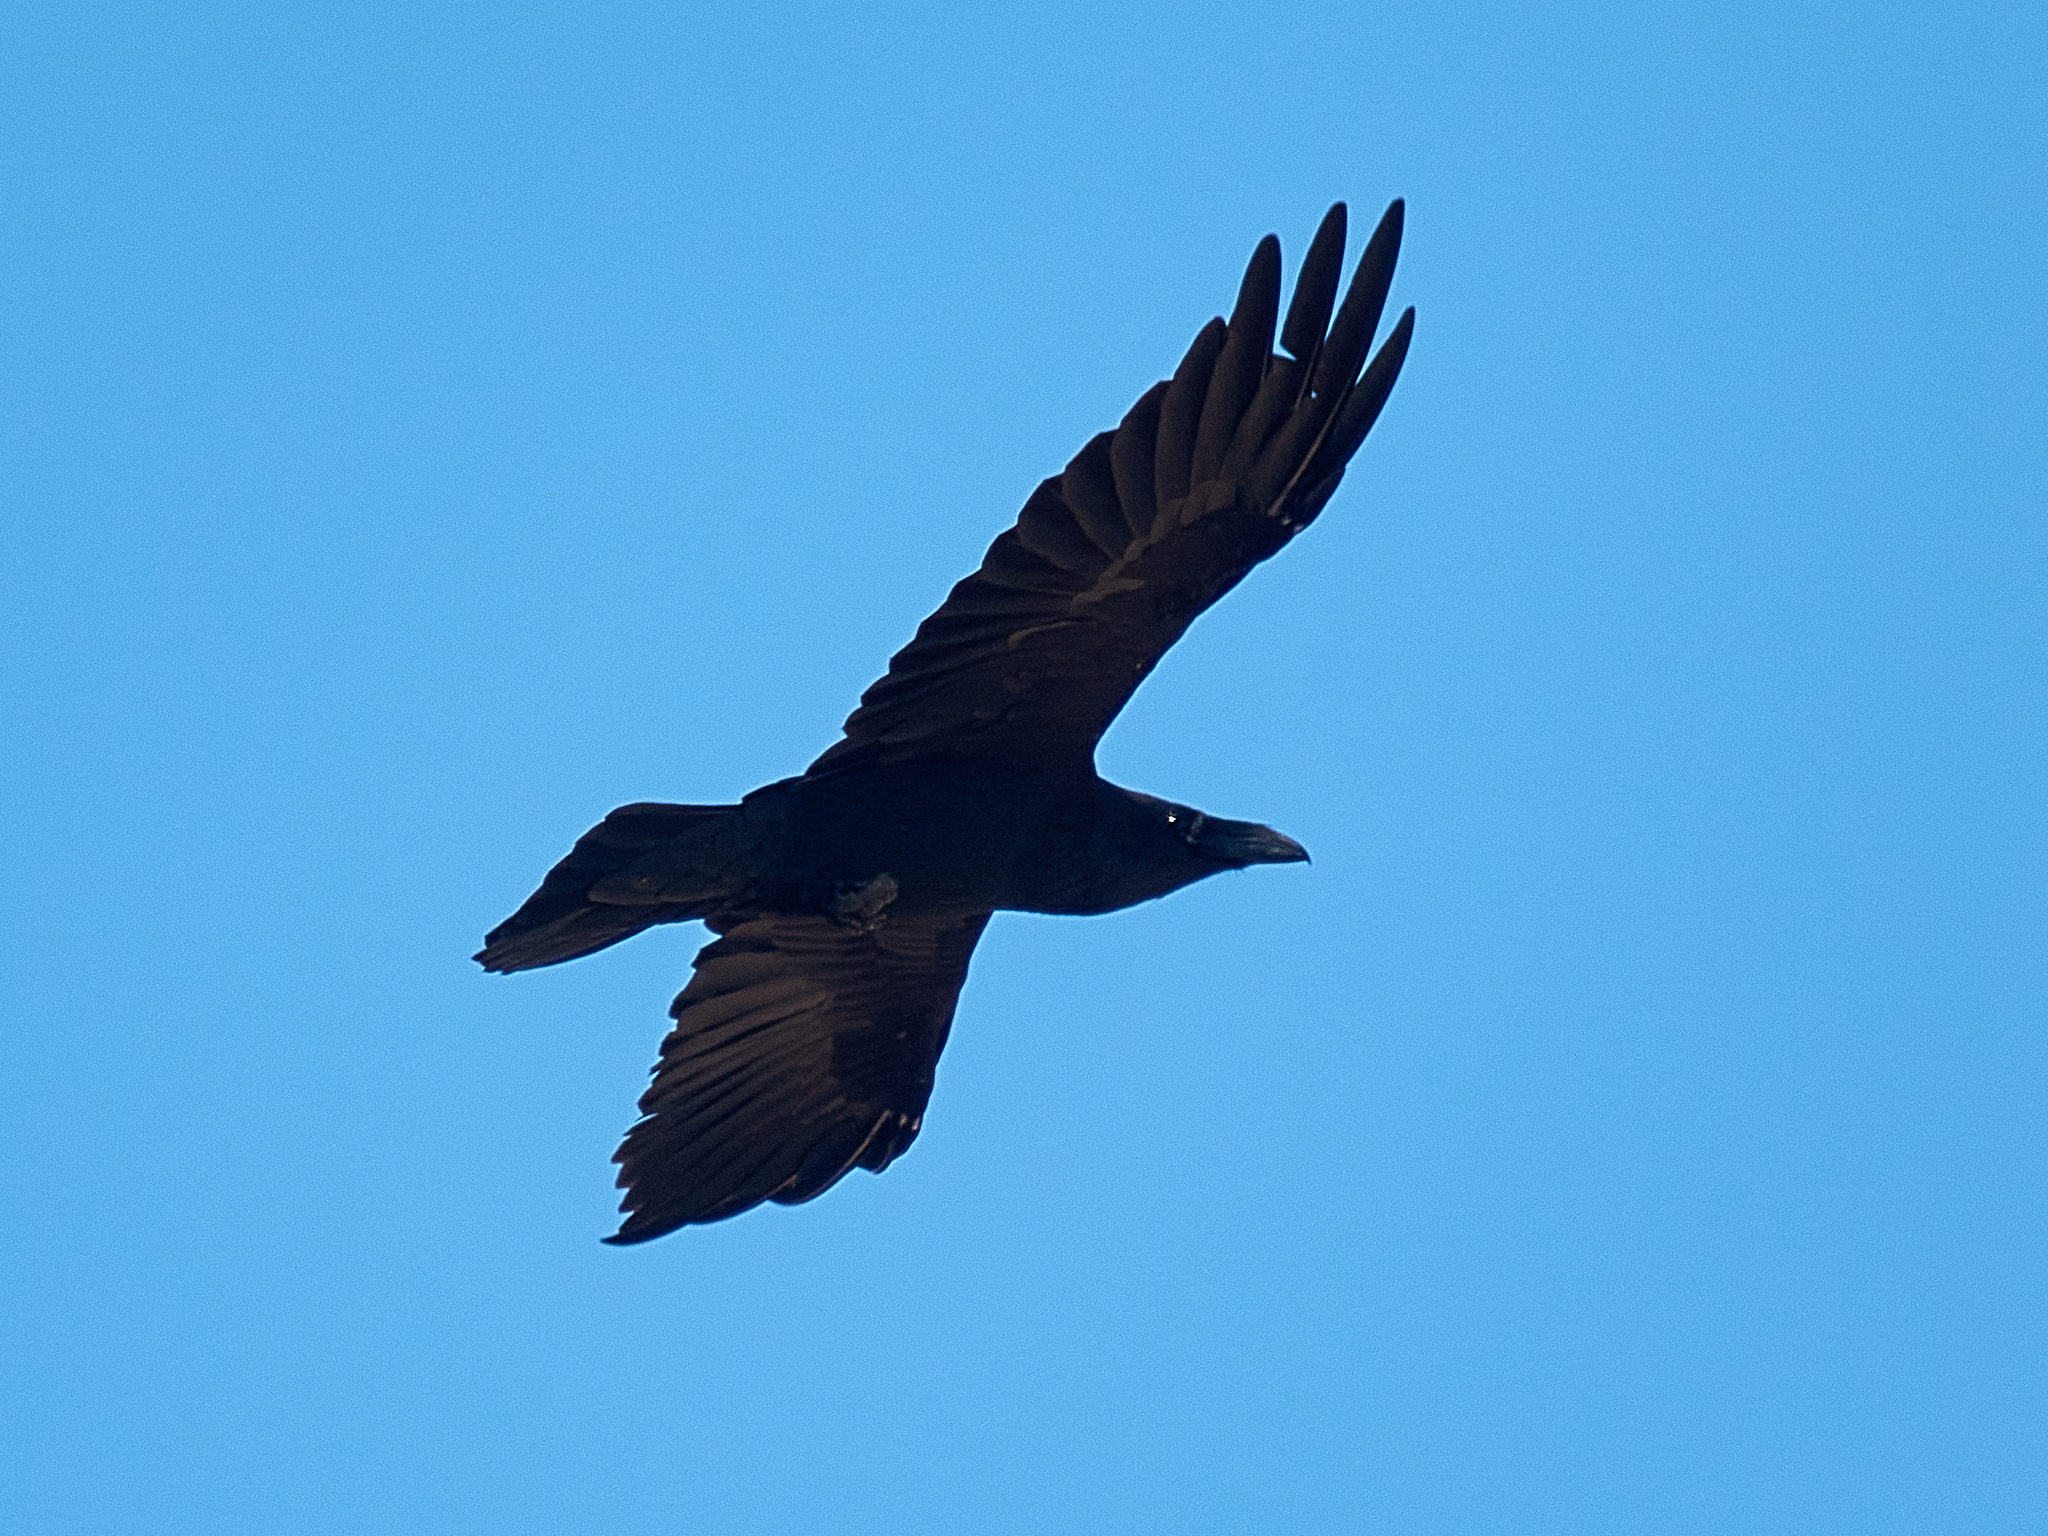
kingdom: Animalia
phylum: Chordata
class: Aves
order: Passeriformes
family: Corvidae
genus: Corvus
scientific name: Corvus corax
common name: Common raven
